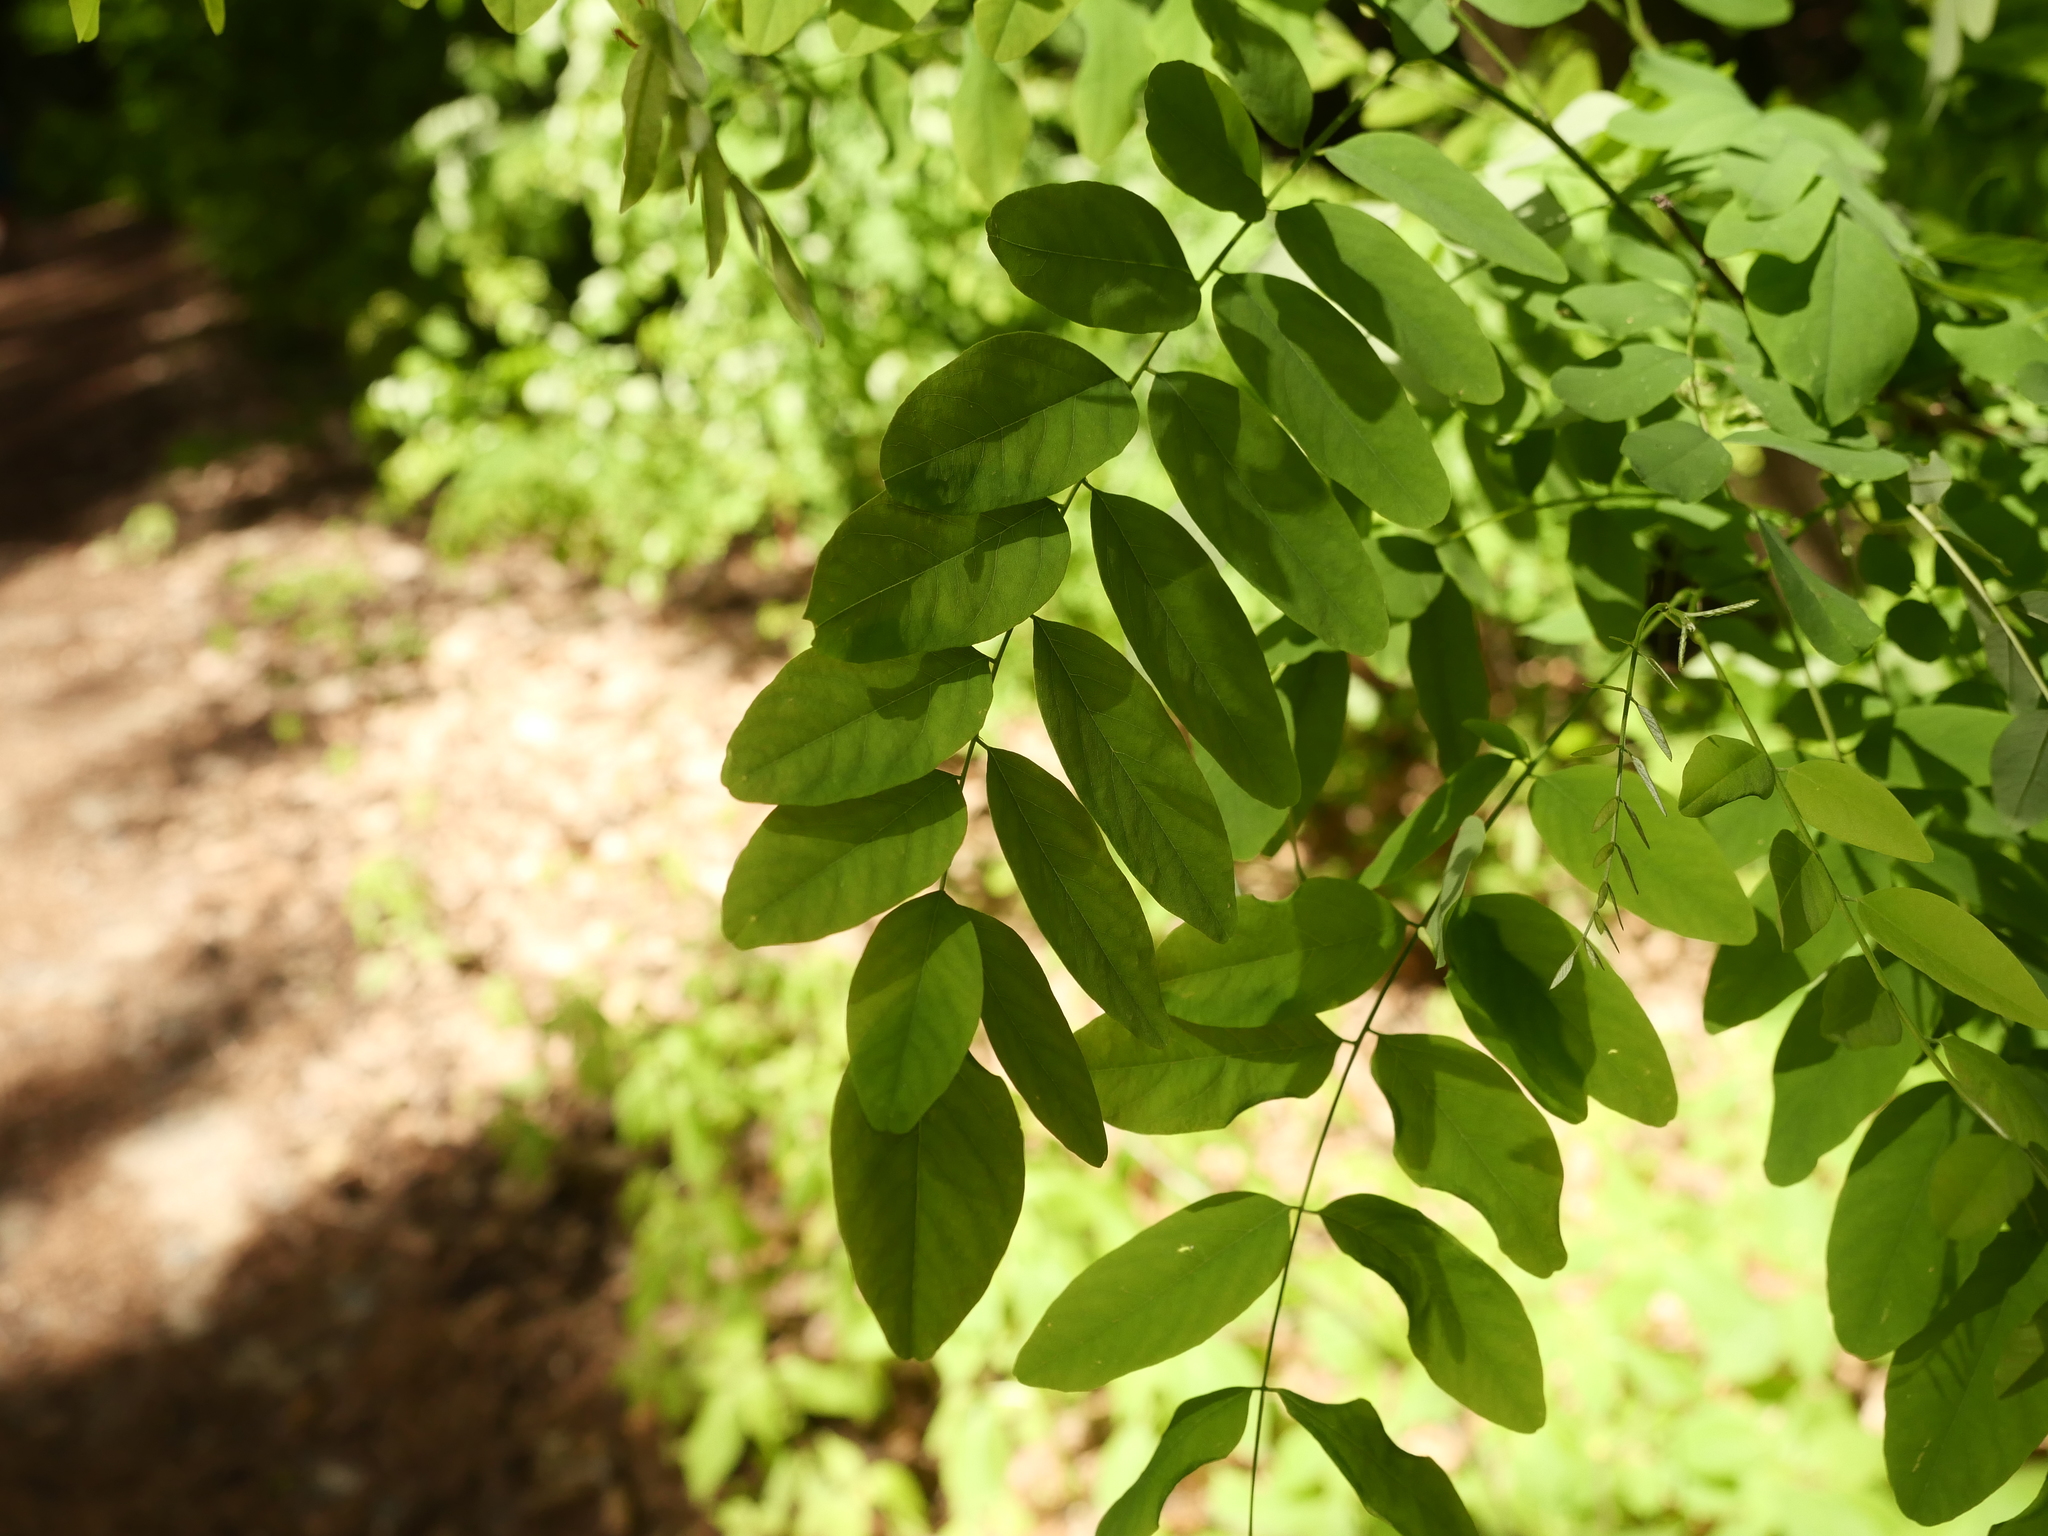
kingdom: Plantae
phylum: Tracheophyta
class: Magnoliopsida
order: Fabales
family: Fabaceae
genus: Robinia
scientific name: Robinia pseudoacacia
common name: Black locust
